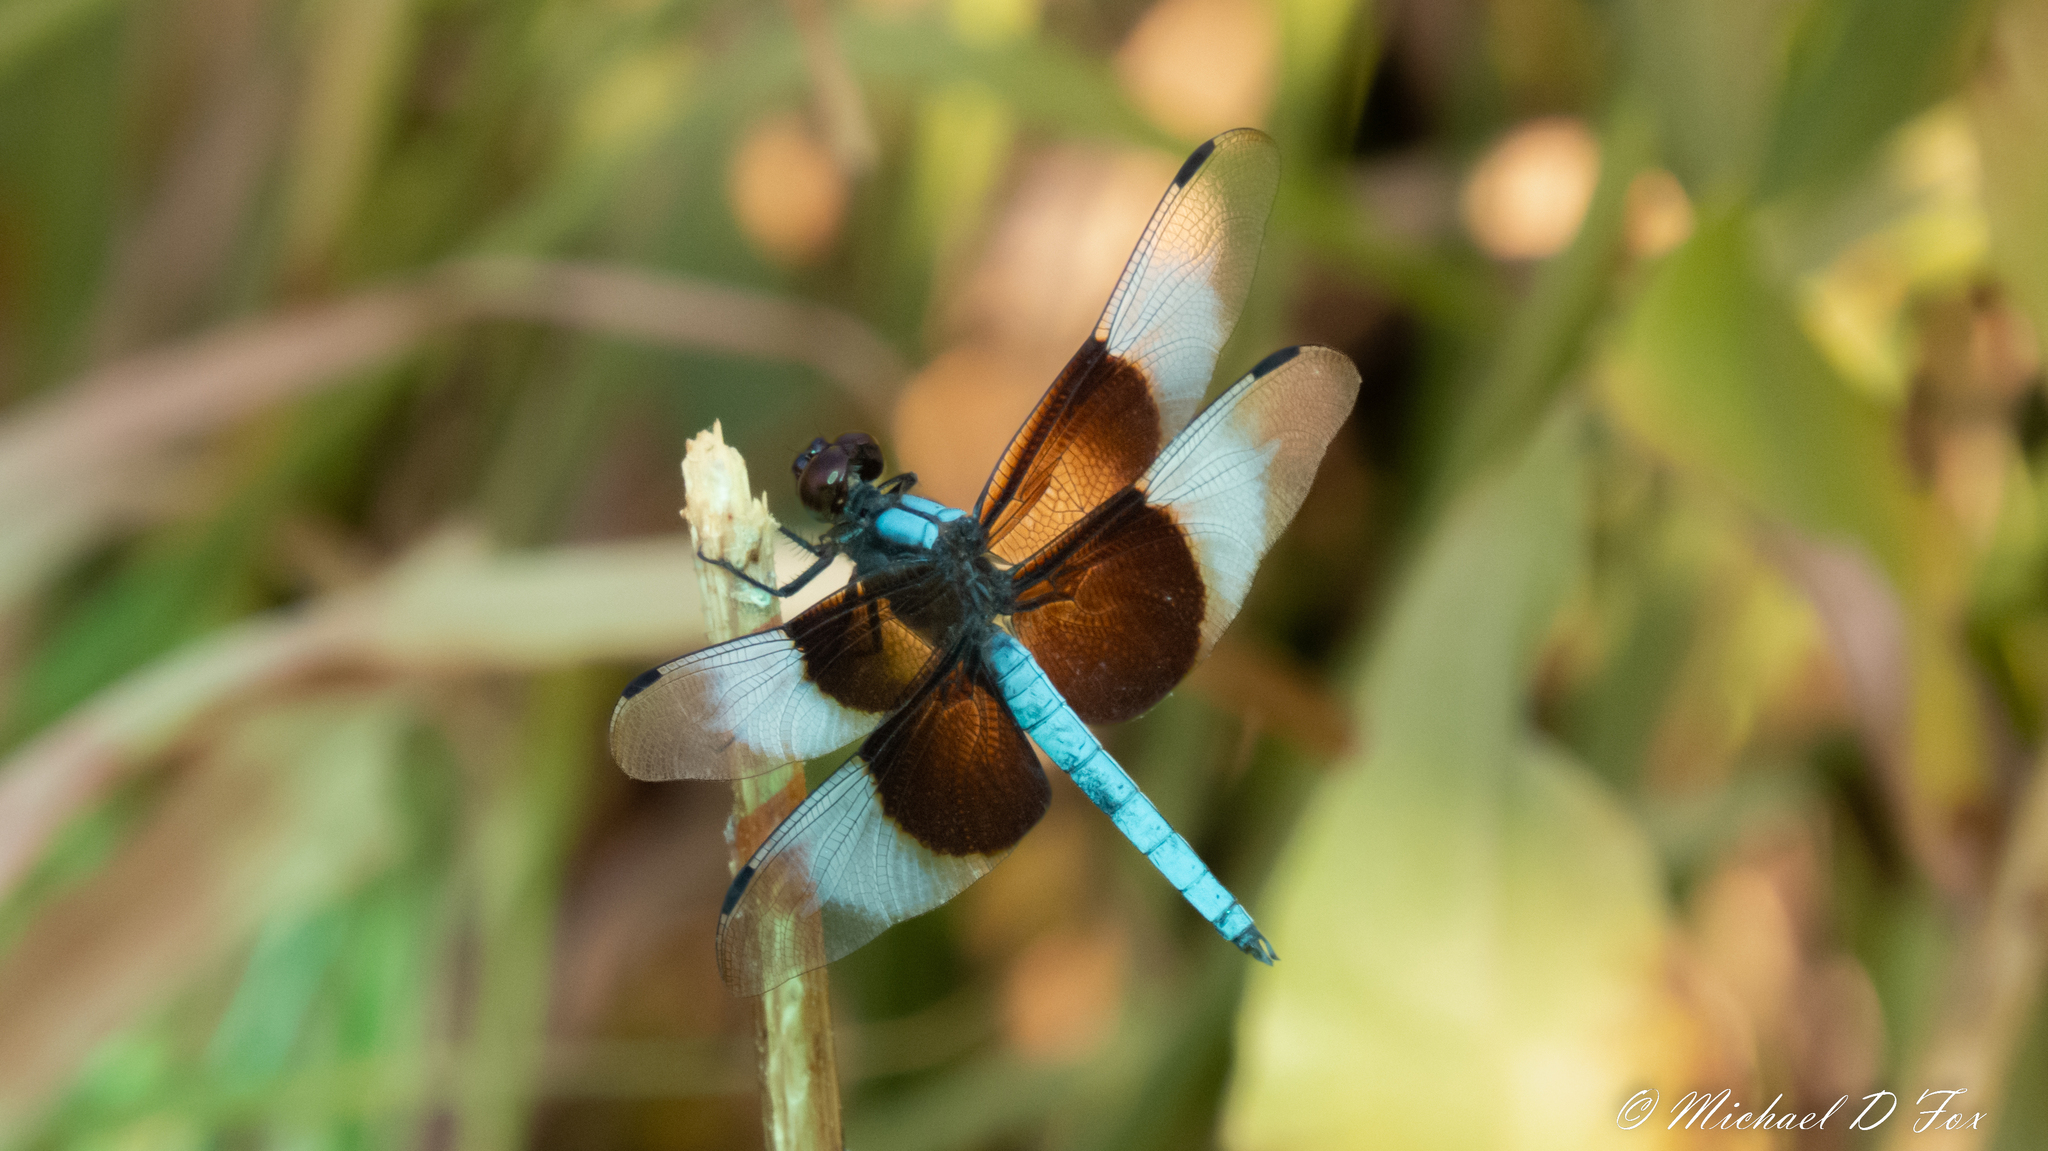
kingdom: Animalia
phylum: Arthropoda
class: Insecta
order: Odonata
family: Libellulidae
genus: Libellula
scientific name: Libellula luctuosa
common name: Widow skimmer
